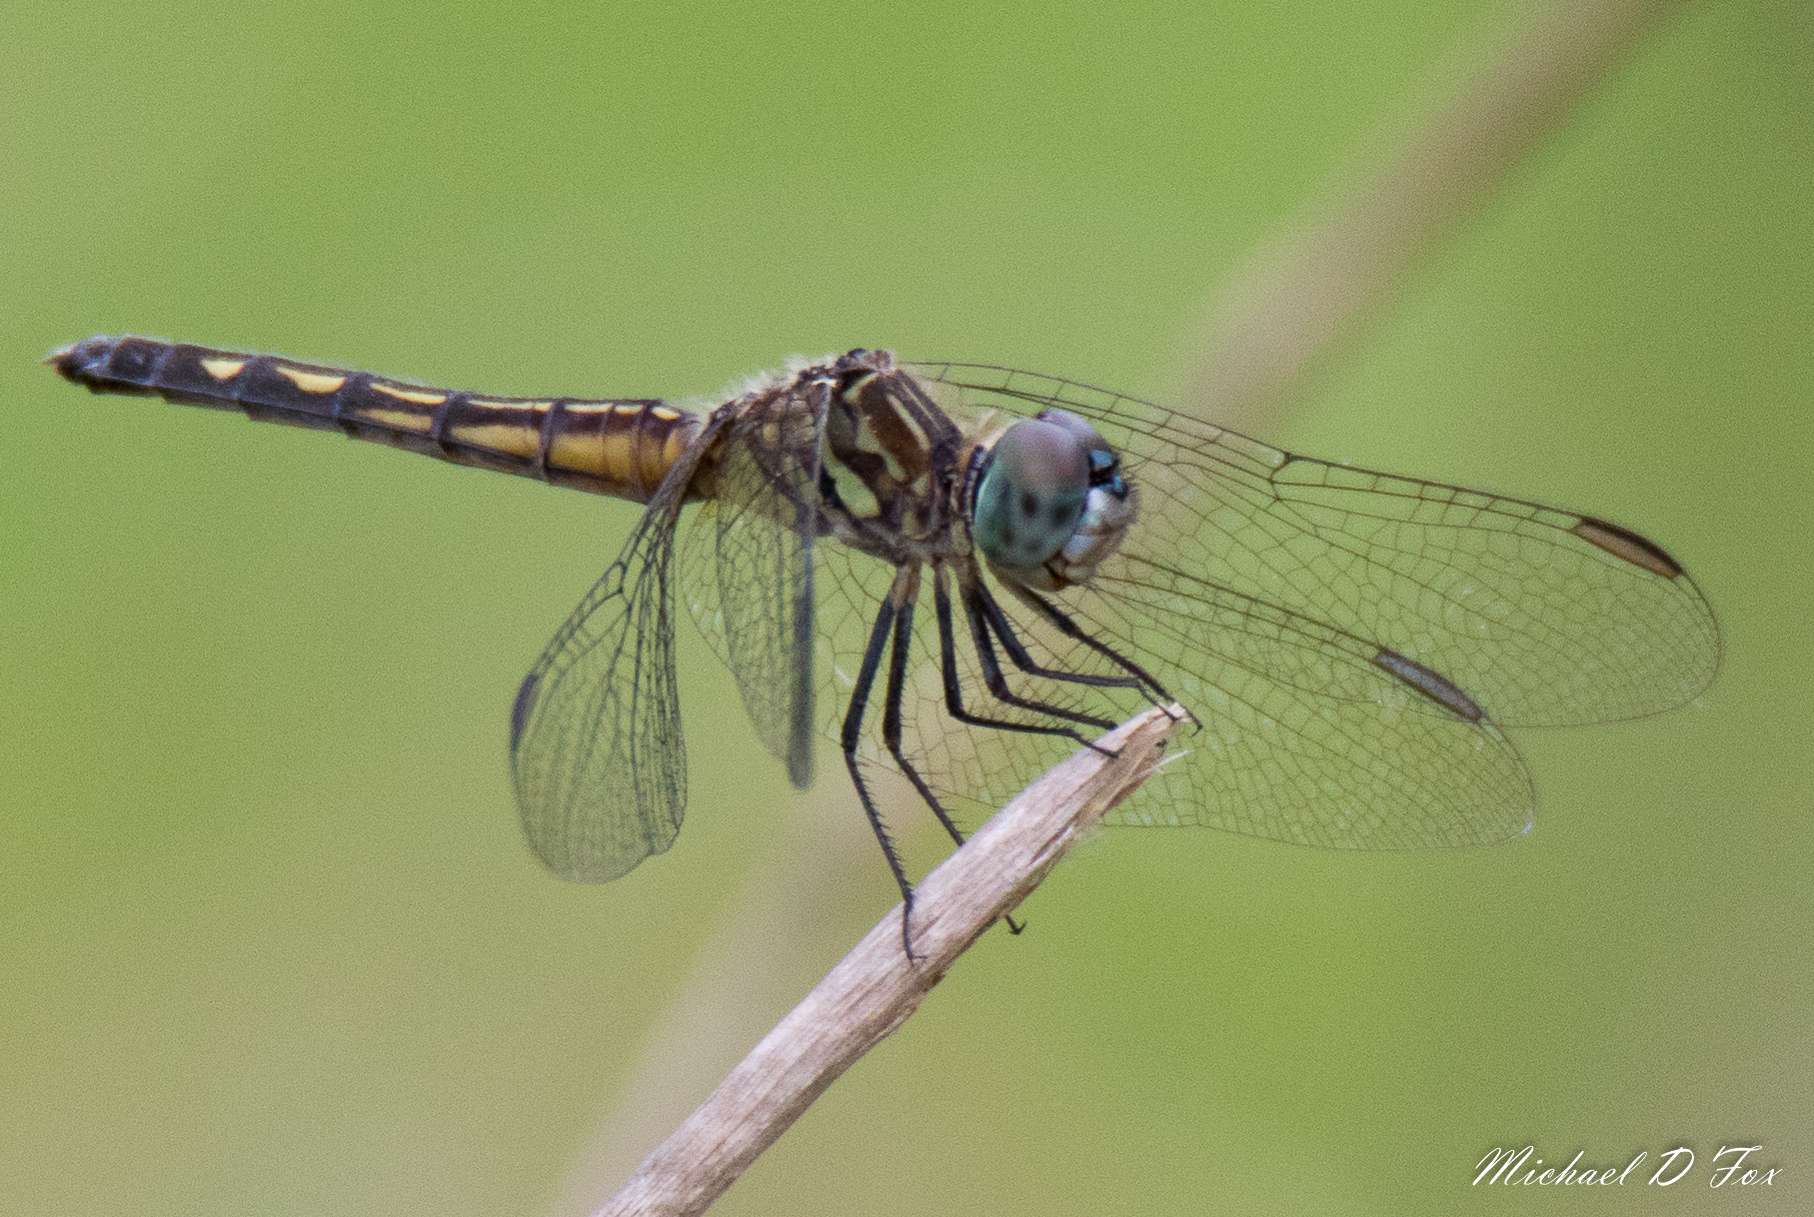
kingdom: Animalia
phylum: Arthropoda
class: Insecta
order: Odonata
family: Libellulidae
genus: Pachydiplax
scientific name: Pachydiplax longipennis
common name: Blue dasher
